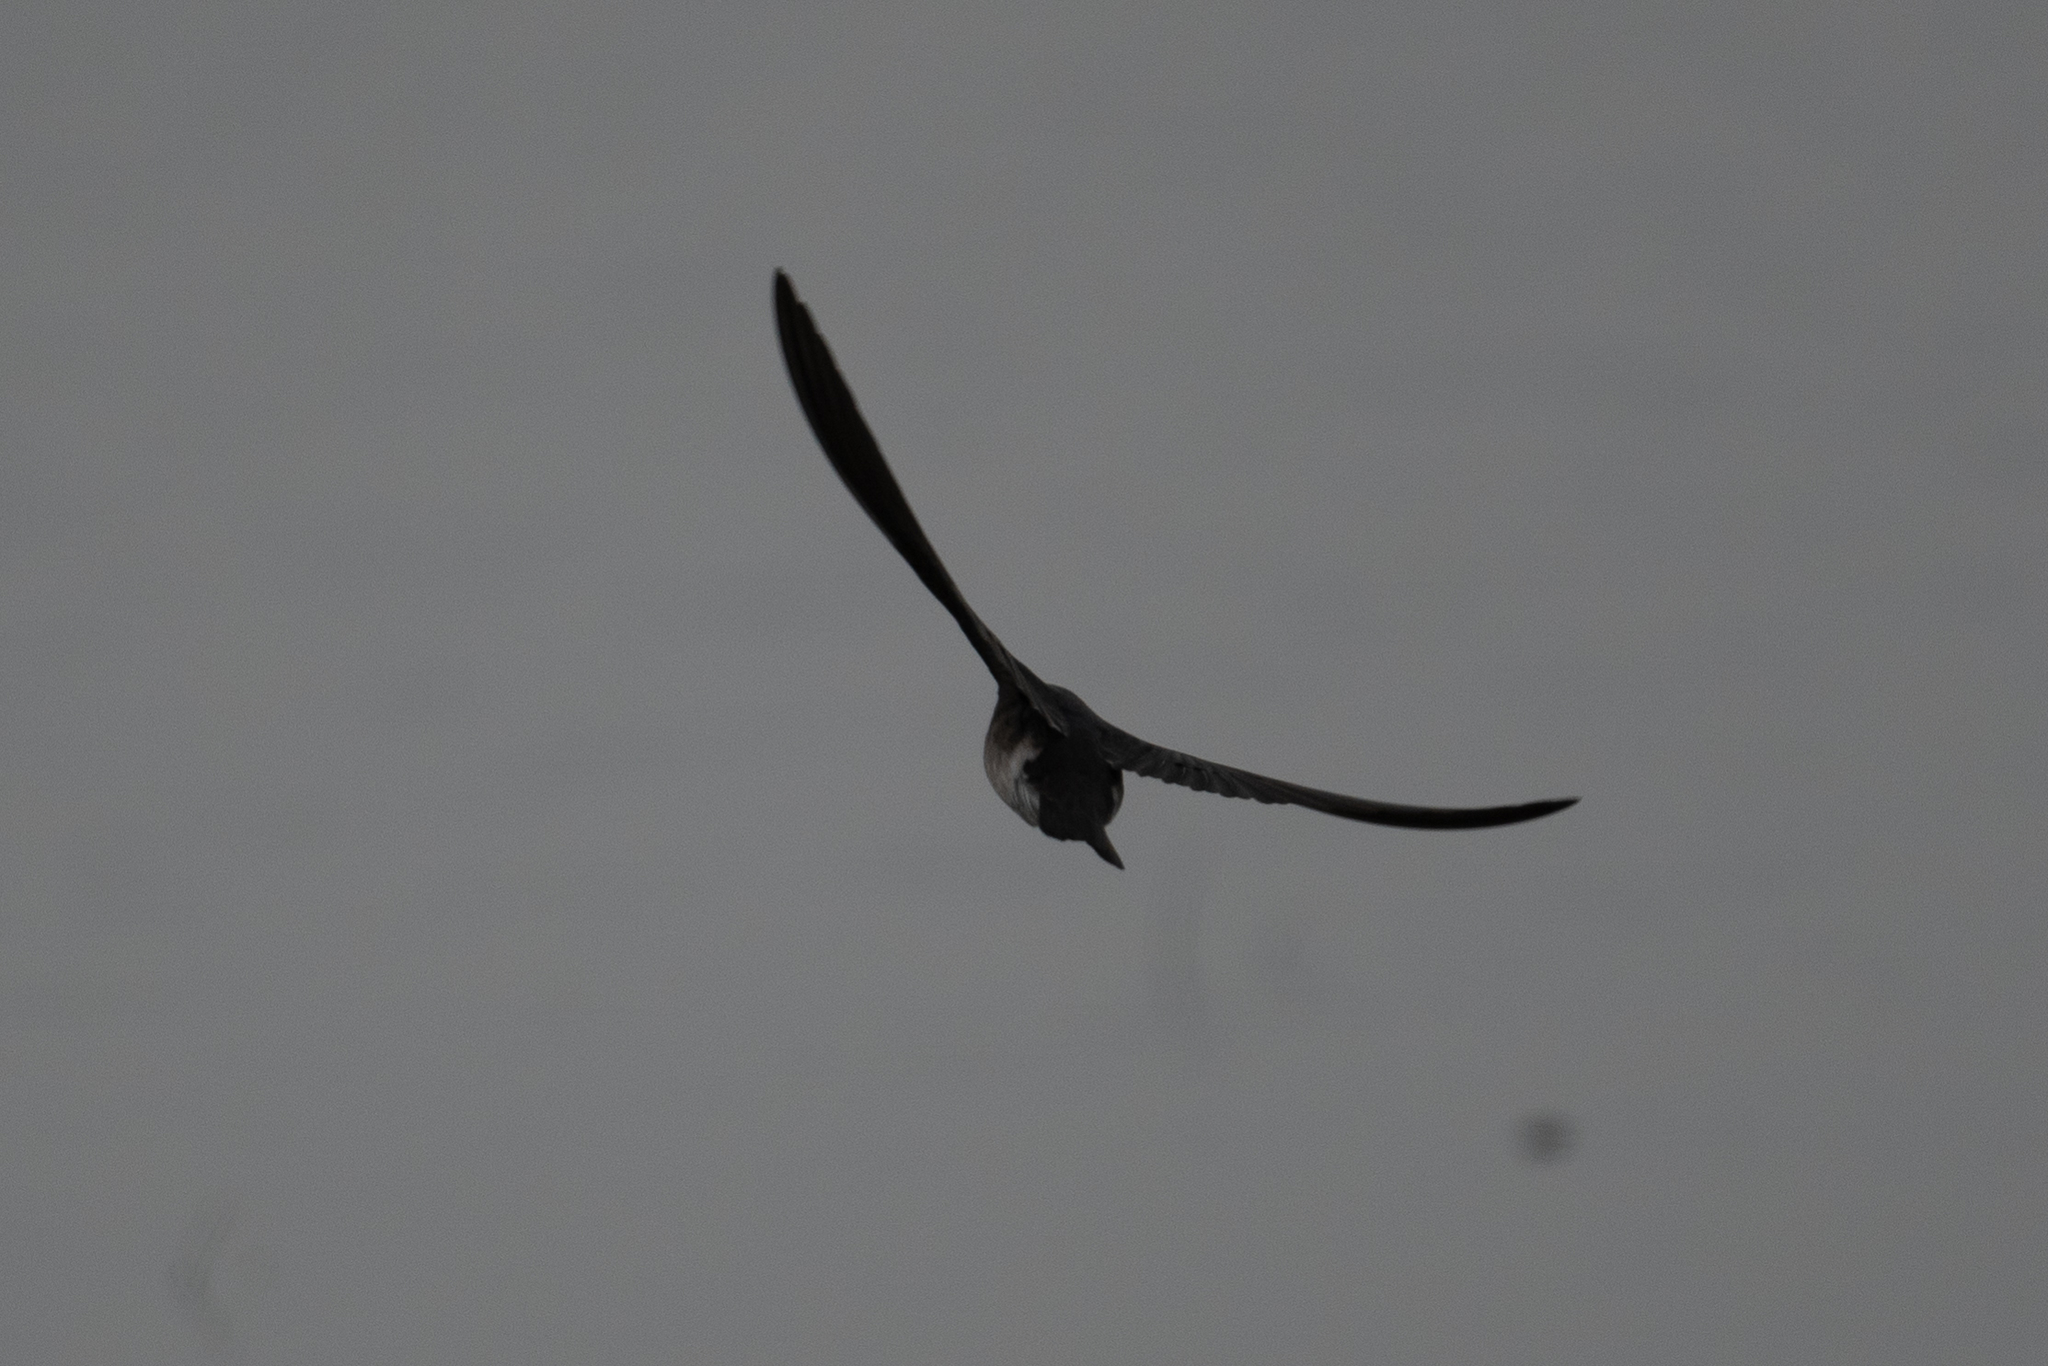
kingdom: Animalia
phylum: Chordata
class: Aves
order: Passeriformes
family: Hirundinidae
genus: Tachycineta
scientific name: Tachycineta bicolor
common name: Tree swallow
